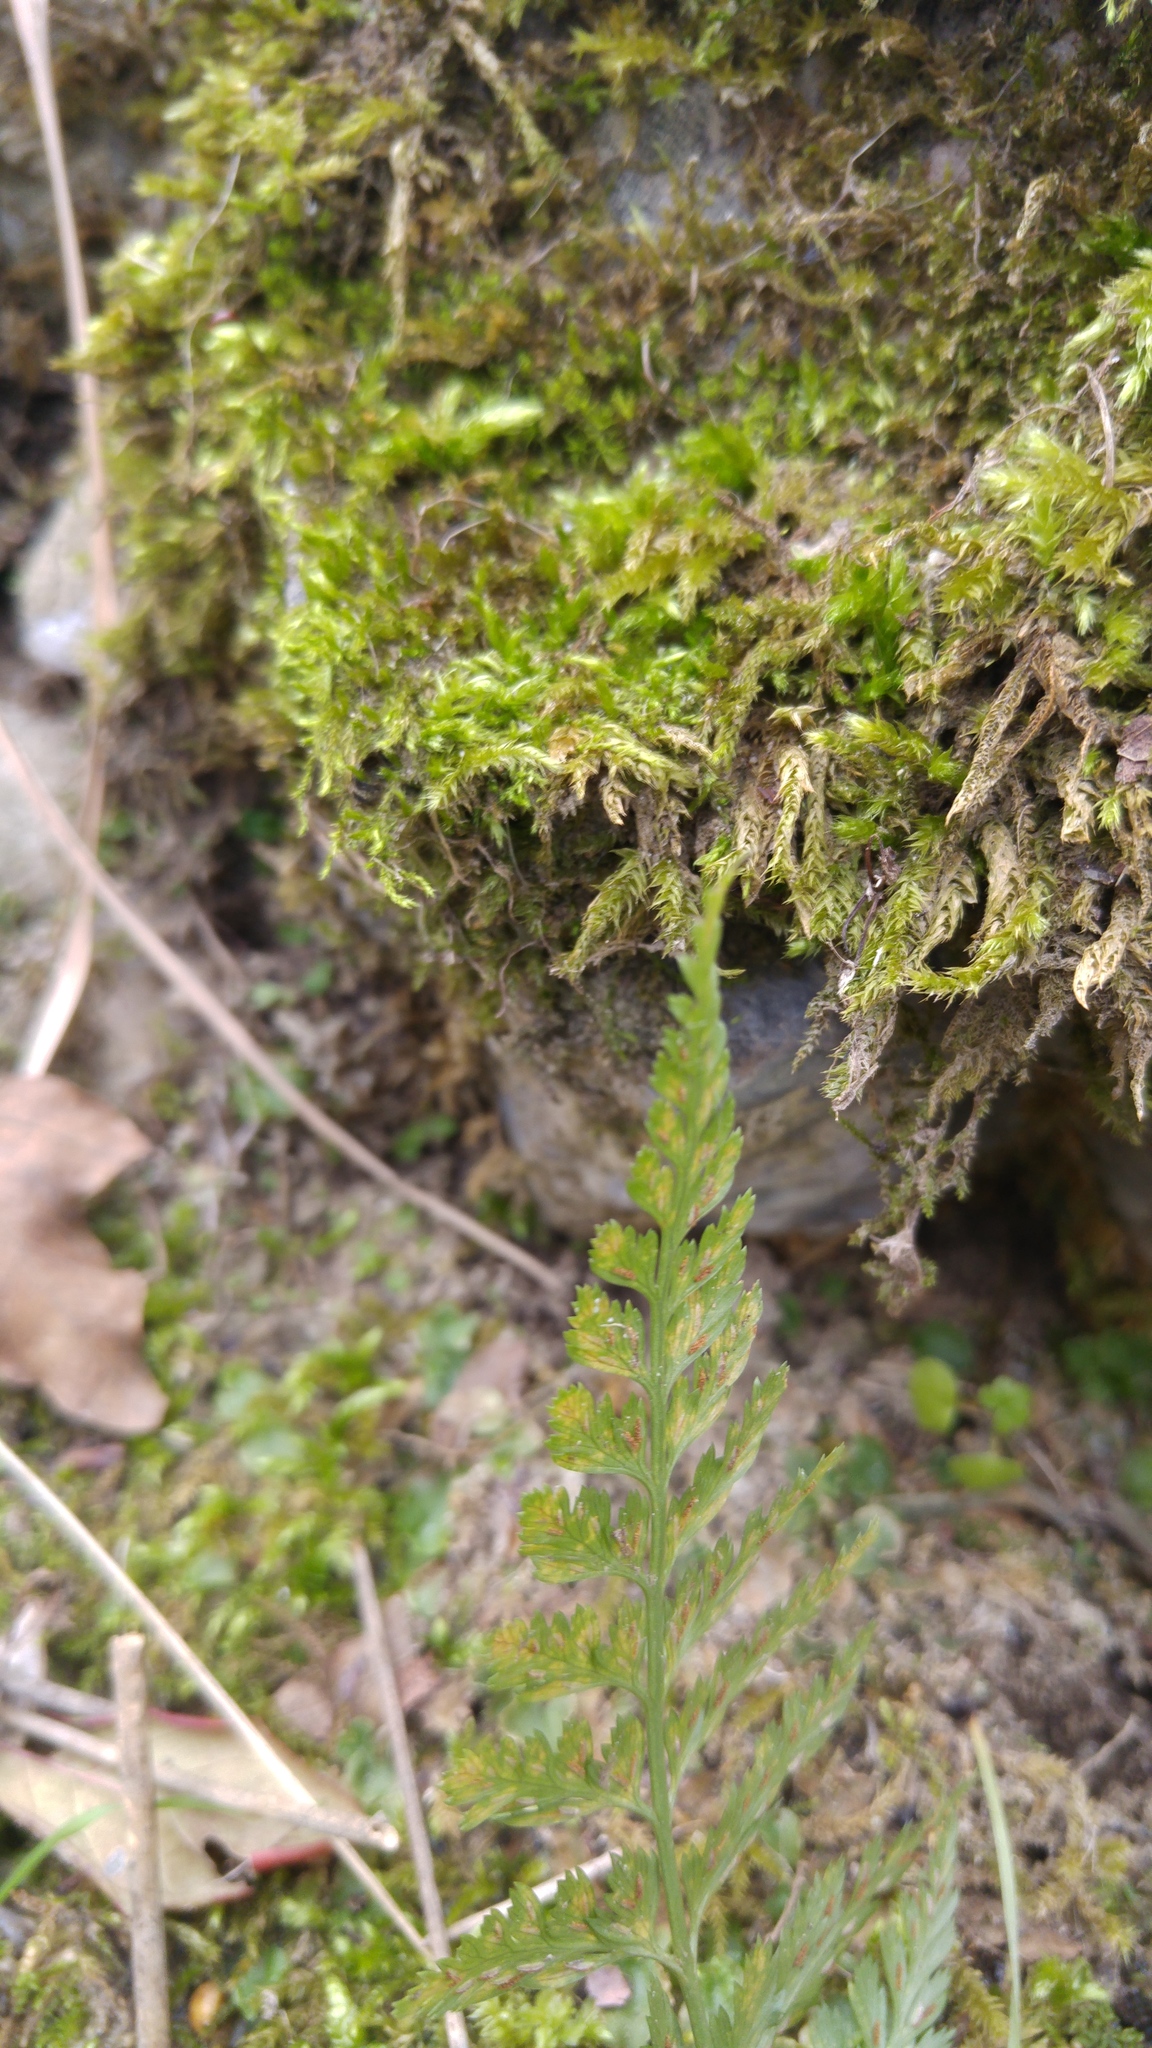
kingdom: Plantae
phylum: Tracheophyta
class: Polypodiopsida
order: Polypodiales
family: Aspleniaceae
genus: Asplenium
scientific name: Asplenium adiantum-nigrum
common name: Black spleenwort
